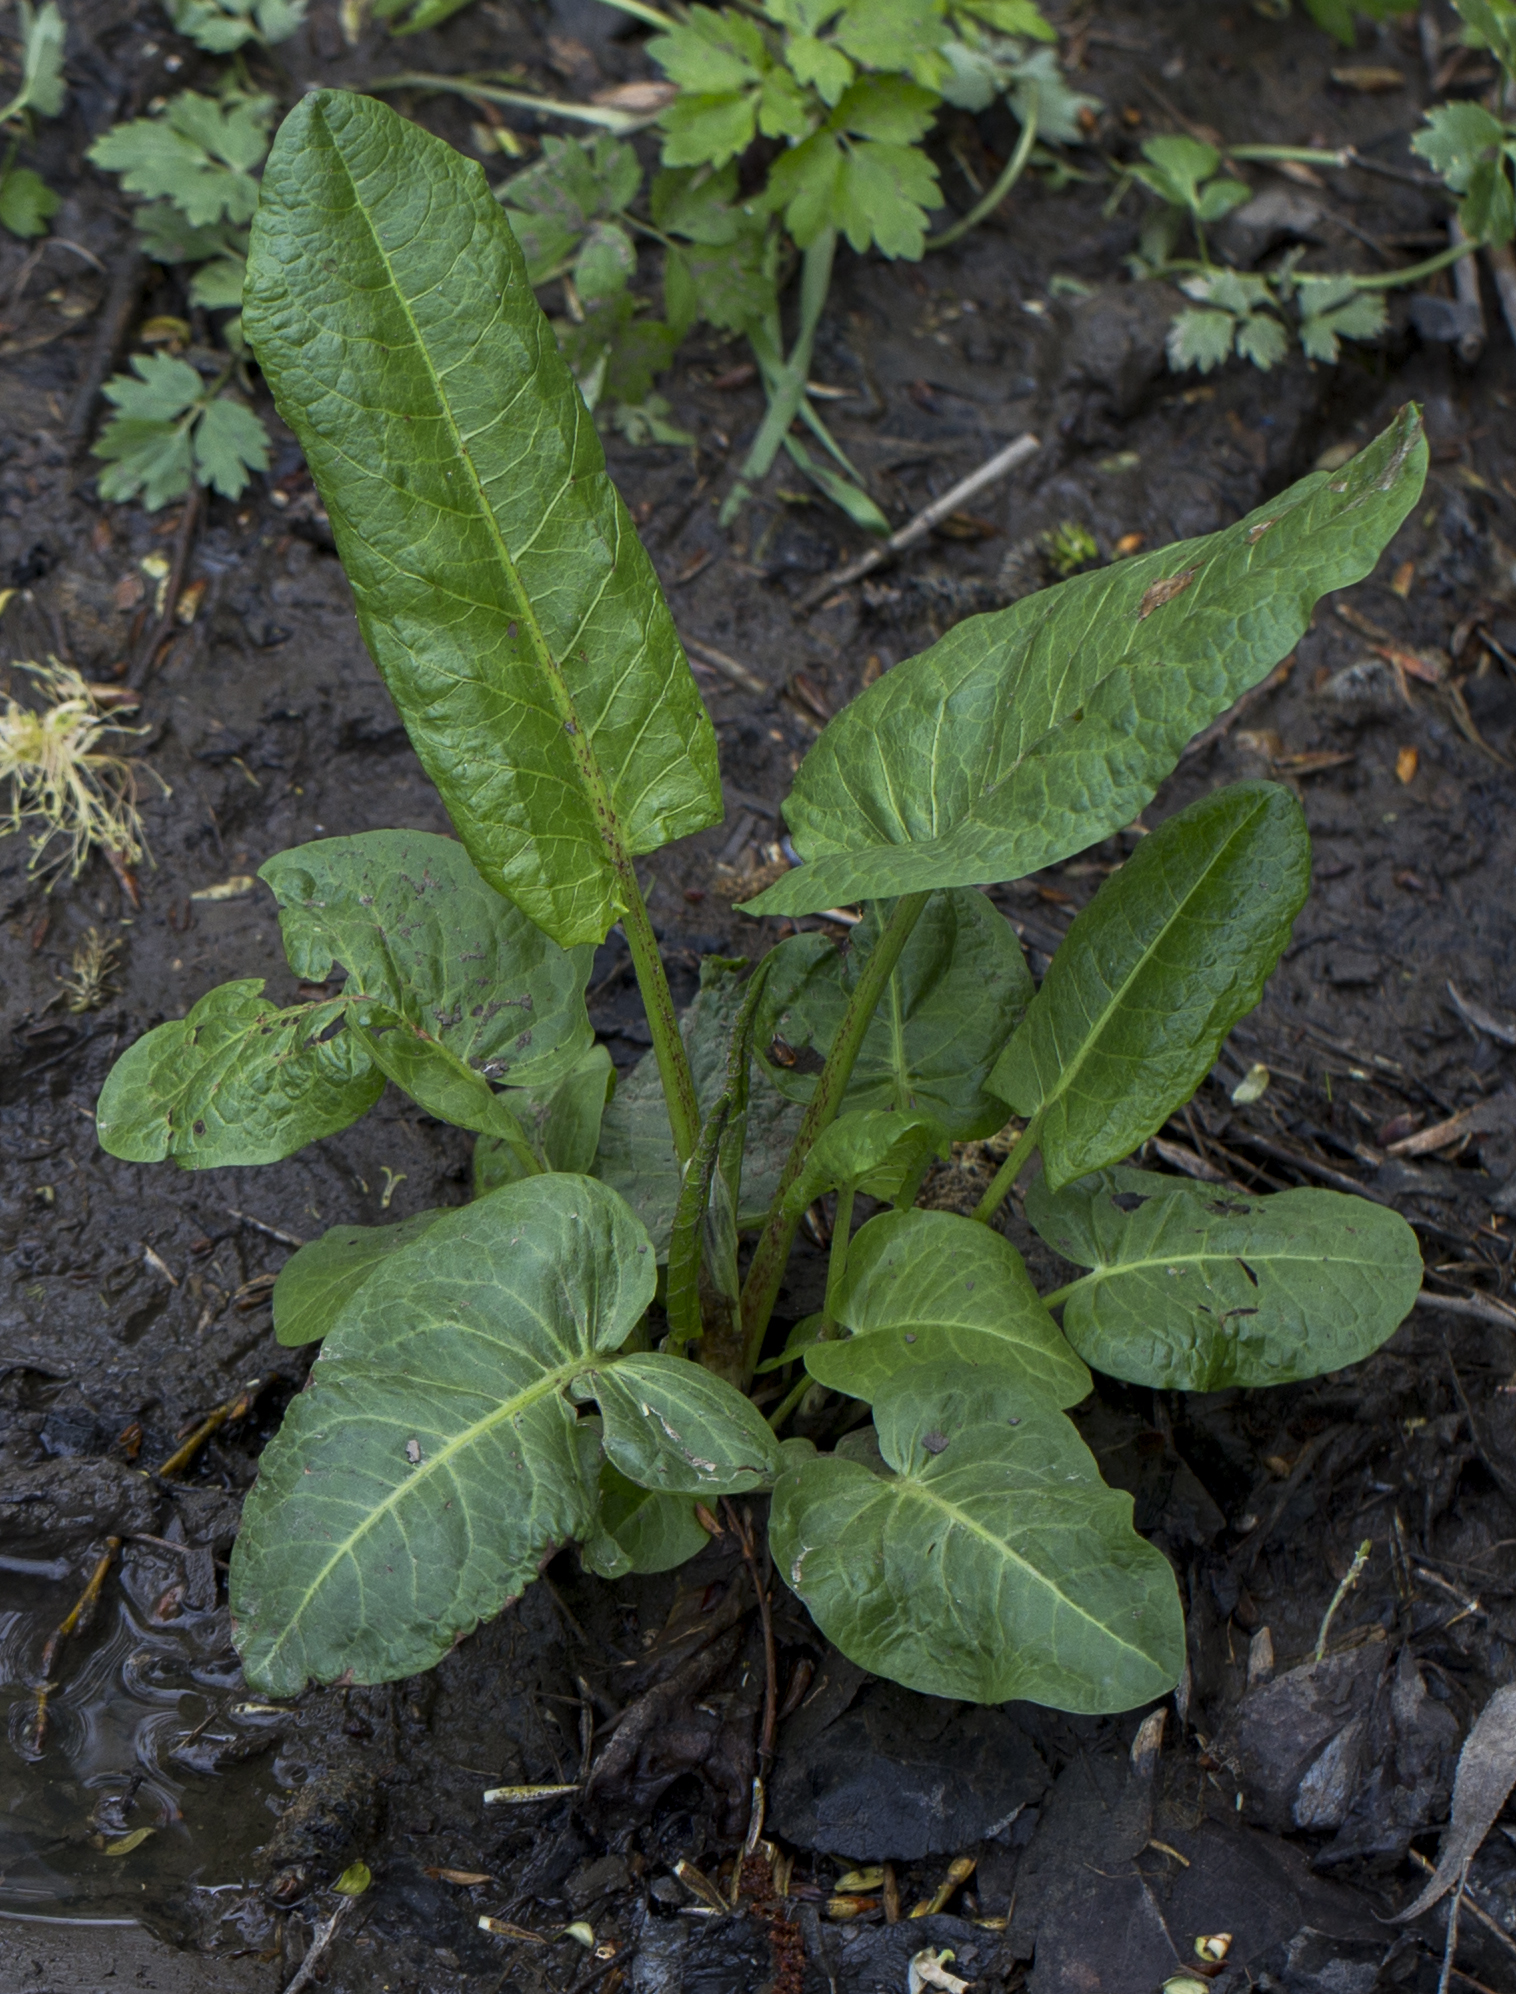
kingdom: Plantae
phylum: Tracheophyta
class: Magnoliopsida
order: Caryophyllales
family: Polygonaceae
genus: Rumex
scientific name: Rumex obtusifolius
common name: Bitter dock
